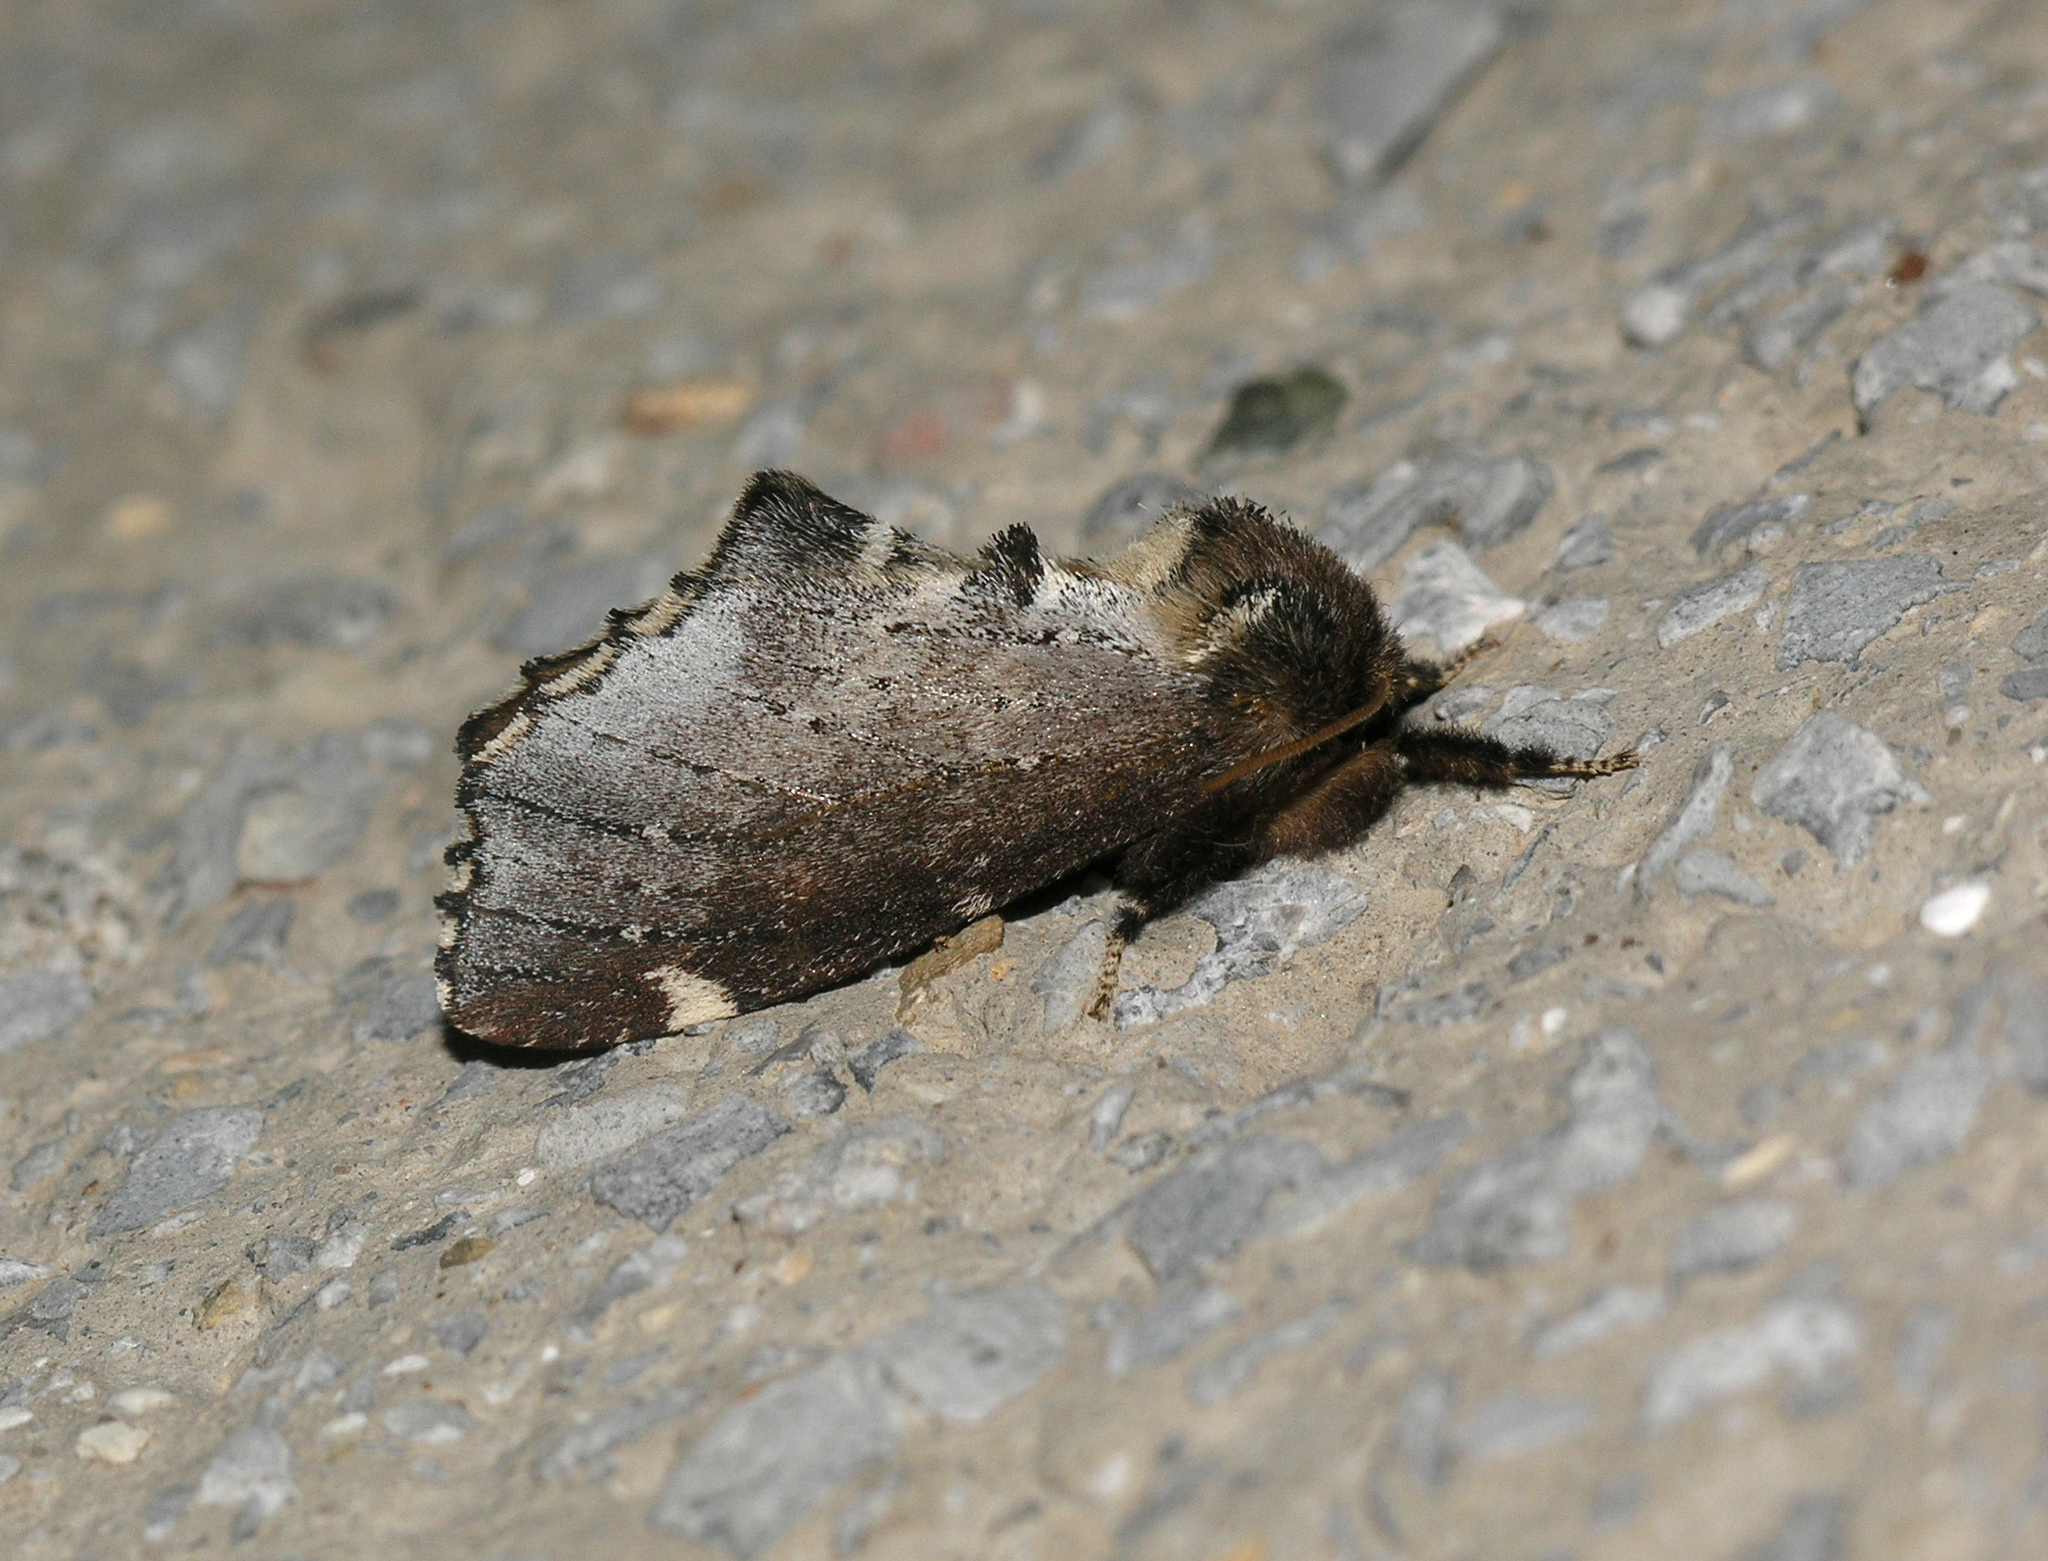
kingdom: Animalia
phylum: Arthropoda
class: Insecta
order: Lepidoptera
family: Notodontidae
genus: Odontosia
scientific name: Odontosia carmelita
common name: Scarce prominent
